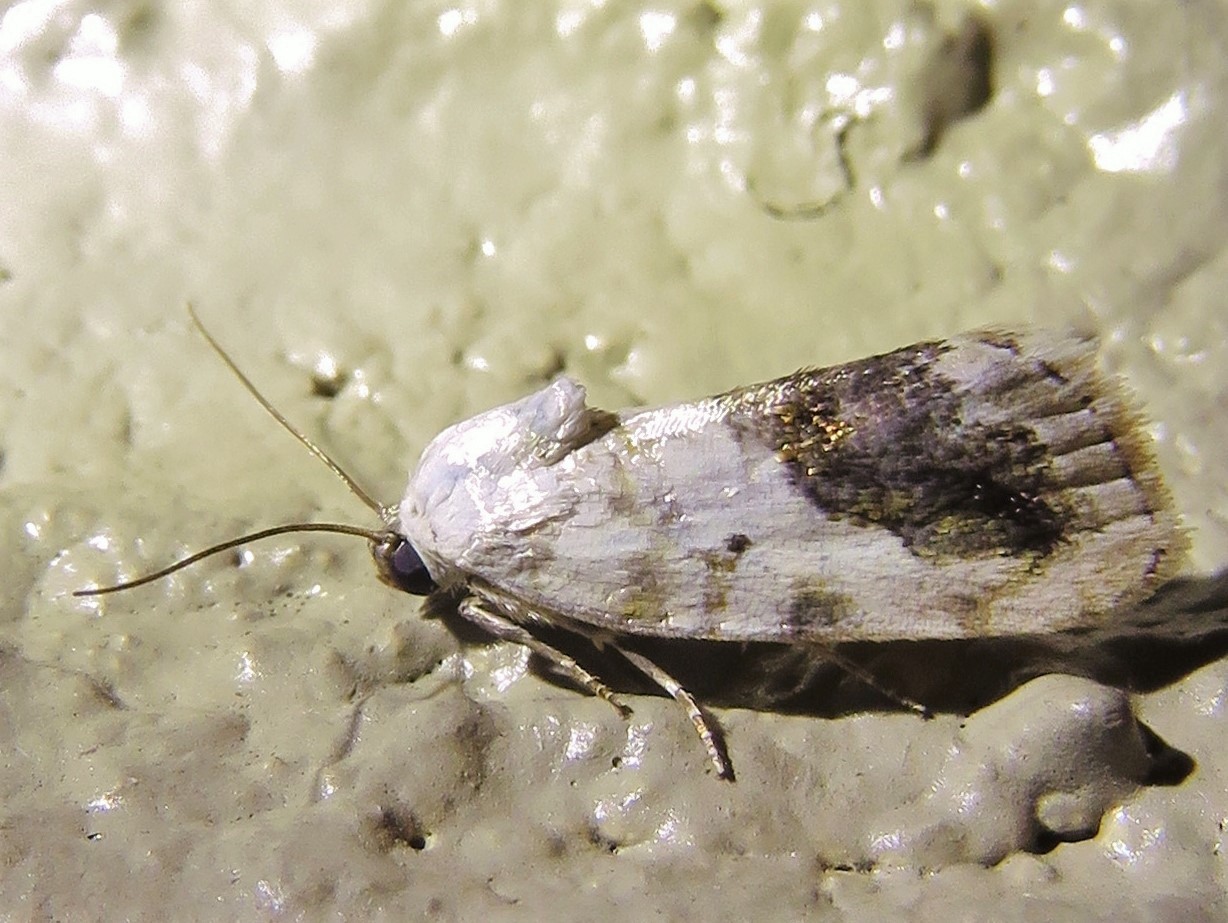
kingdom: Animalia
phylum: Arthropoda
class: Insecta
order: Lepidoptera
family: Noctuidae
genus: Acontia
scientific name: Acontia erastrioides
